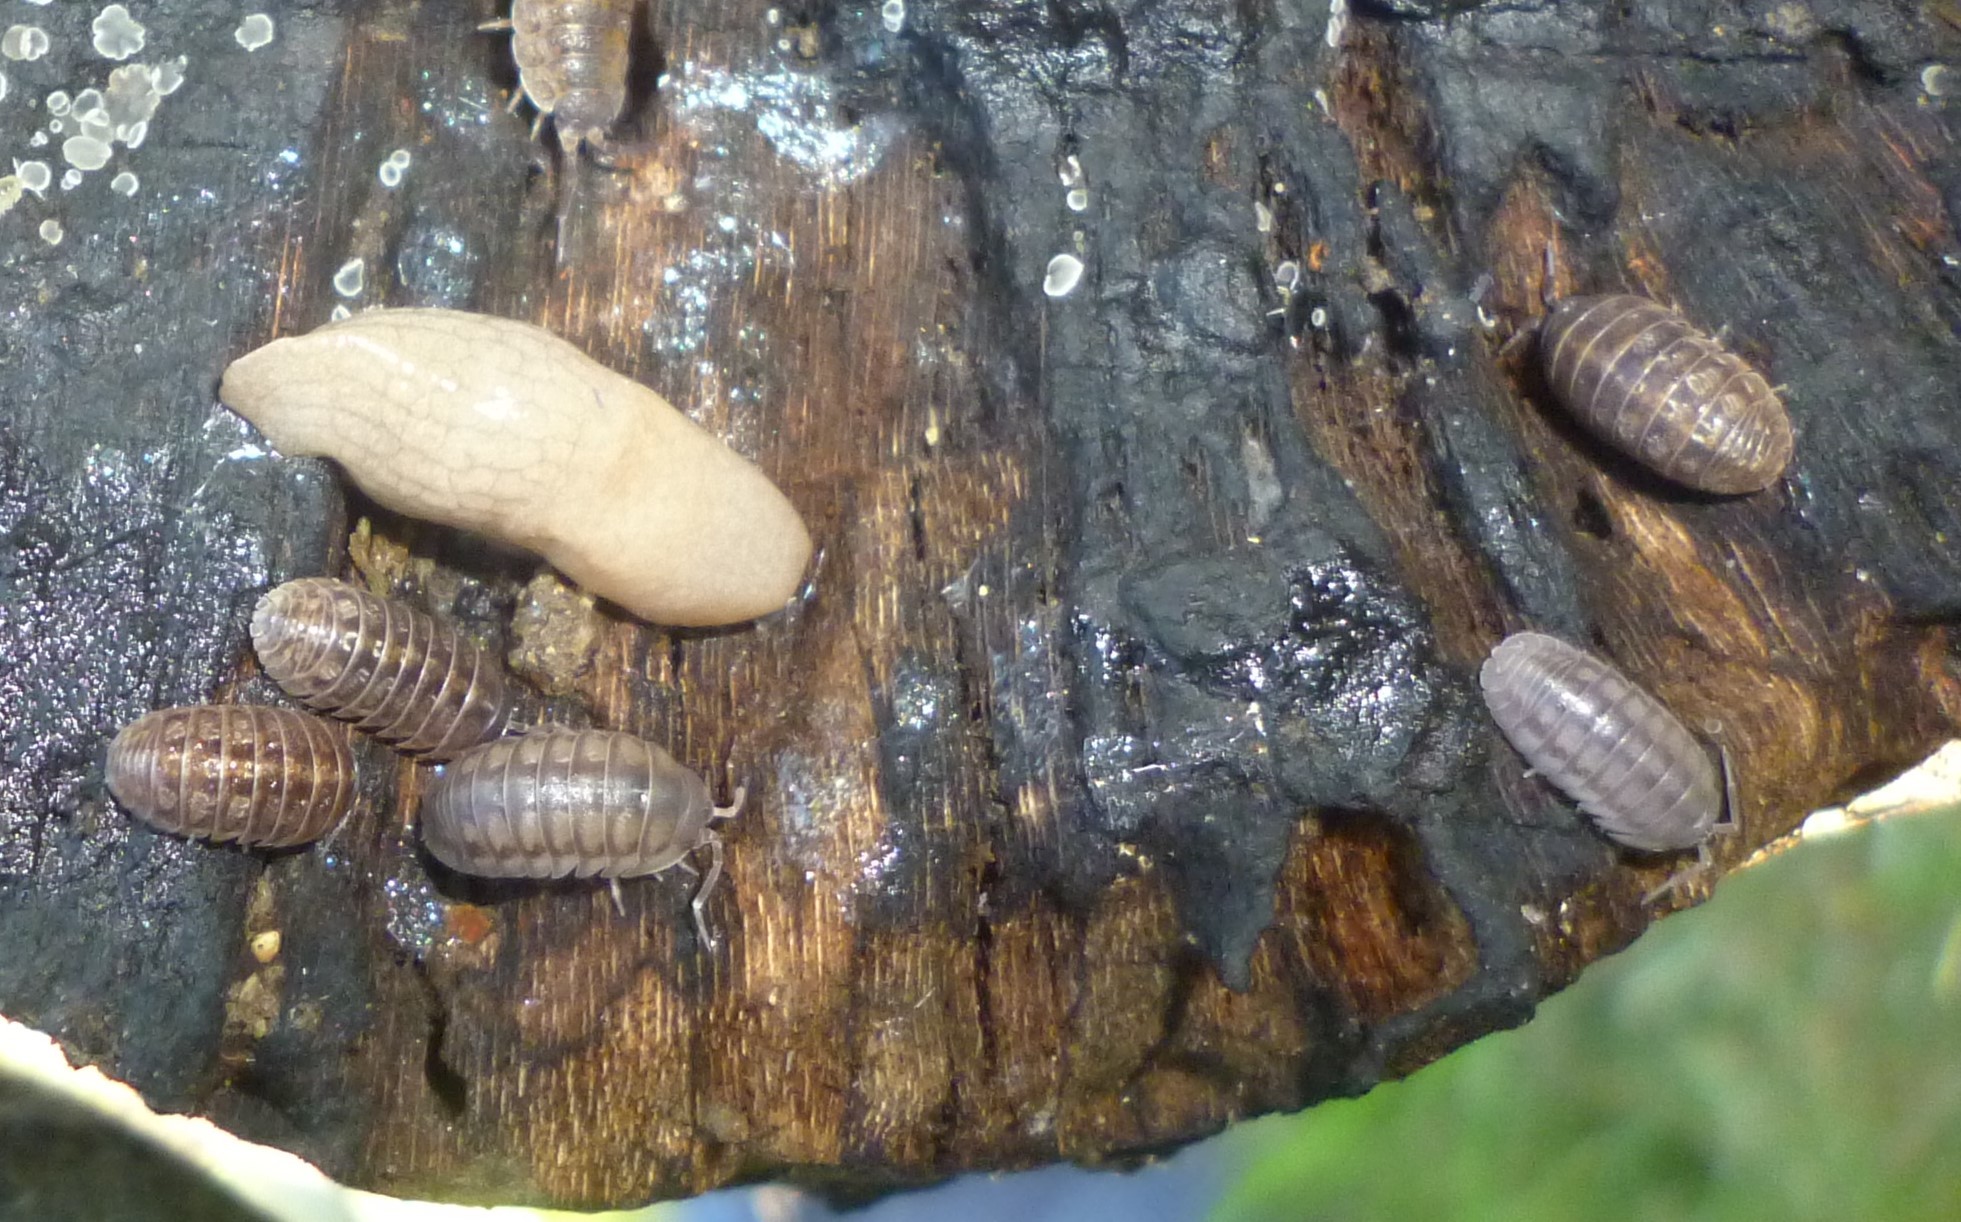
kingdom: Animalia
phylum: Arthropoda
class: Malacostraca
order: Isopoda
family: Armadillidiidae
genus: Armadillidium
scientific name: Armadillidium nasatum
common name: Isopod
